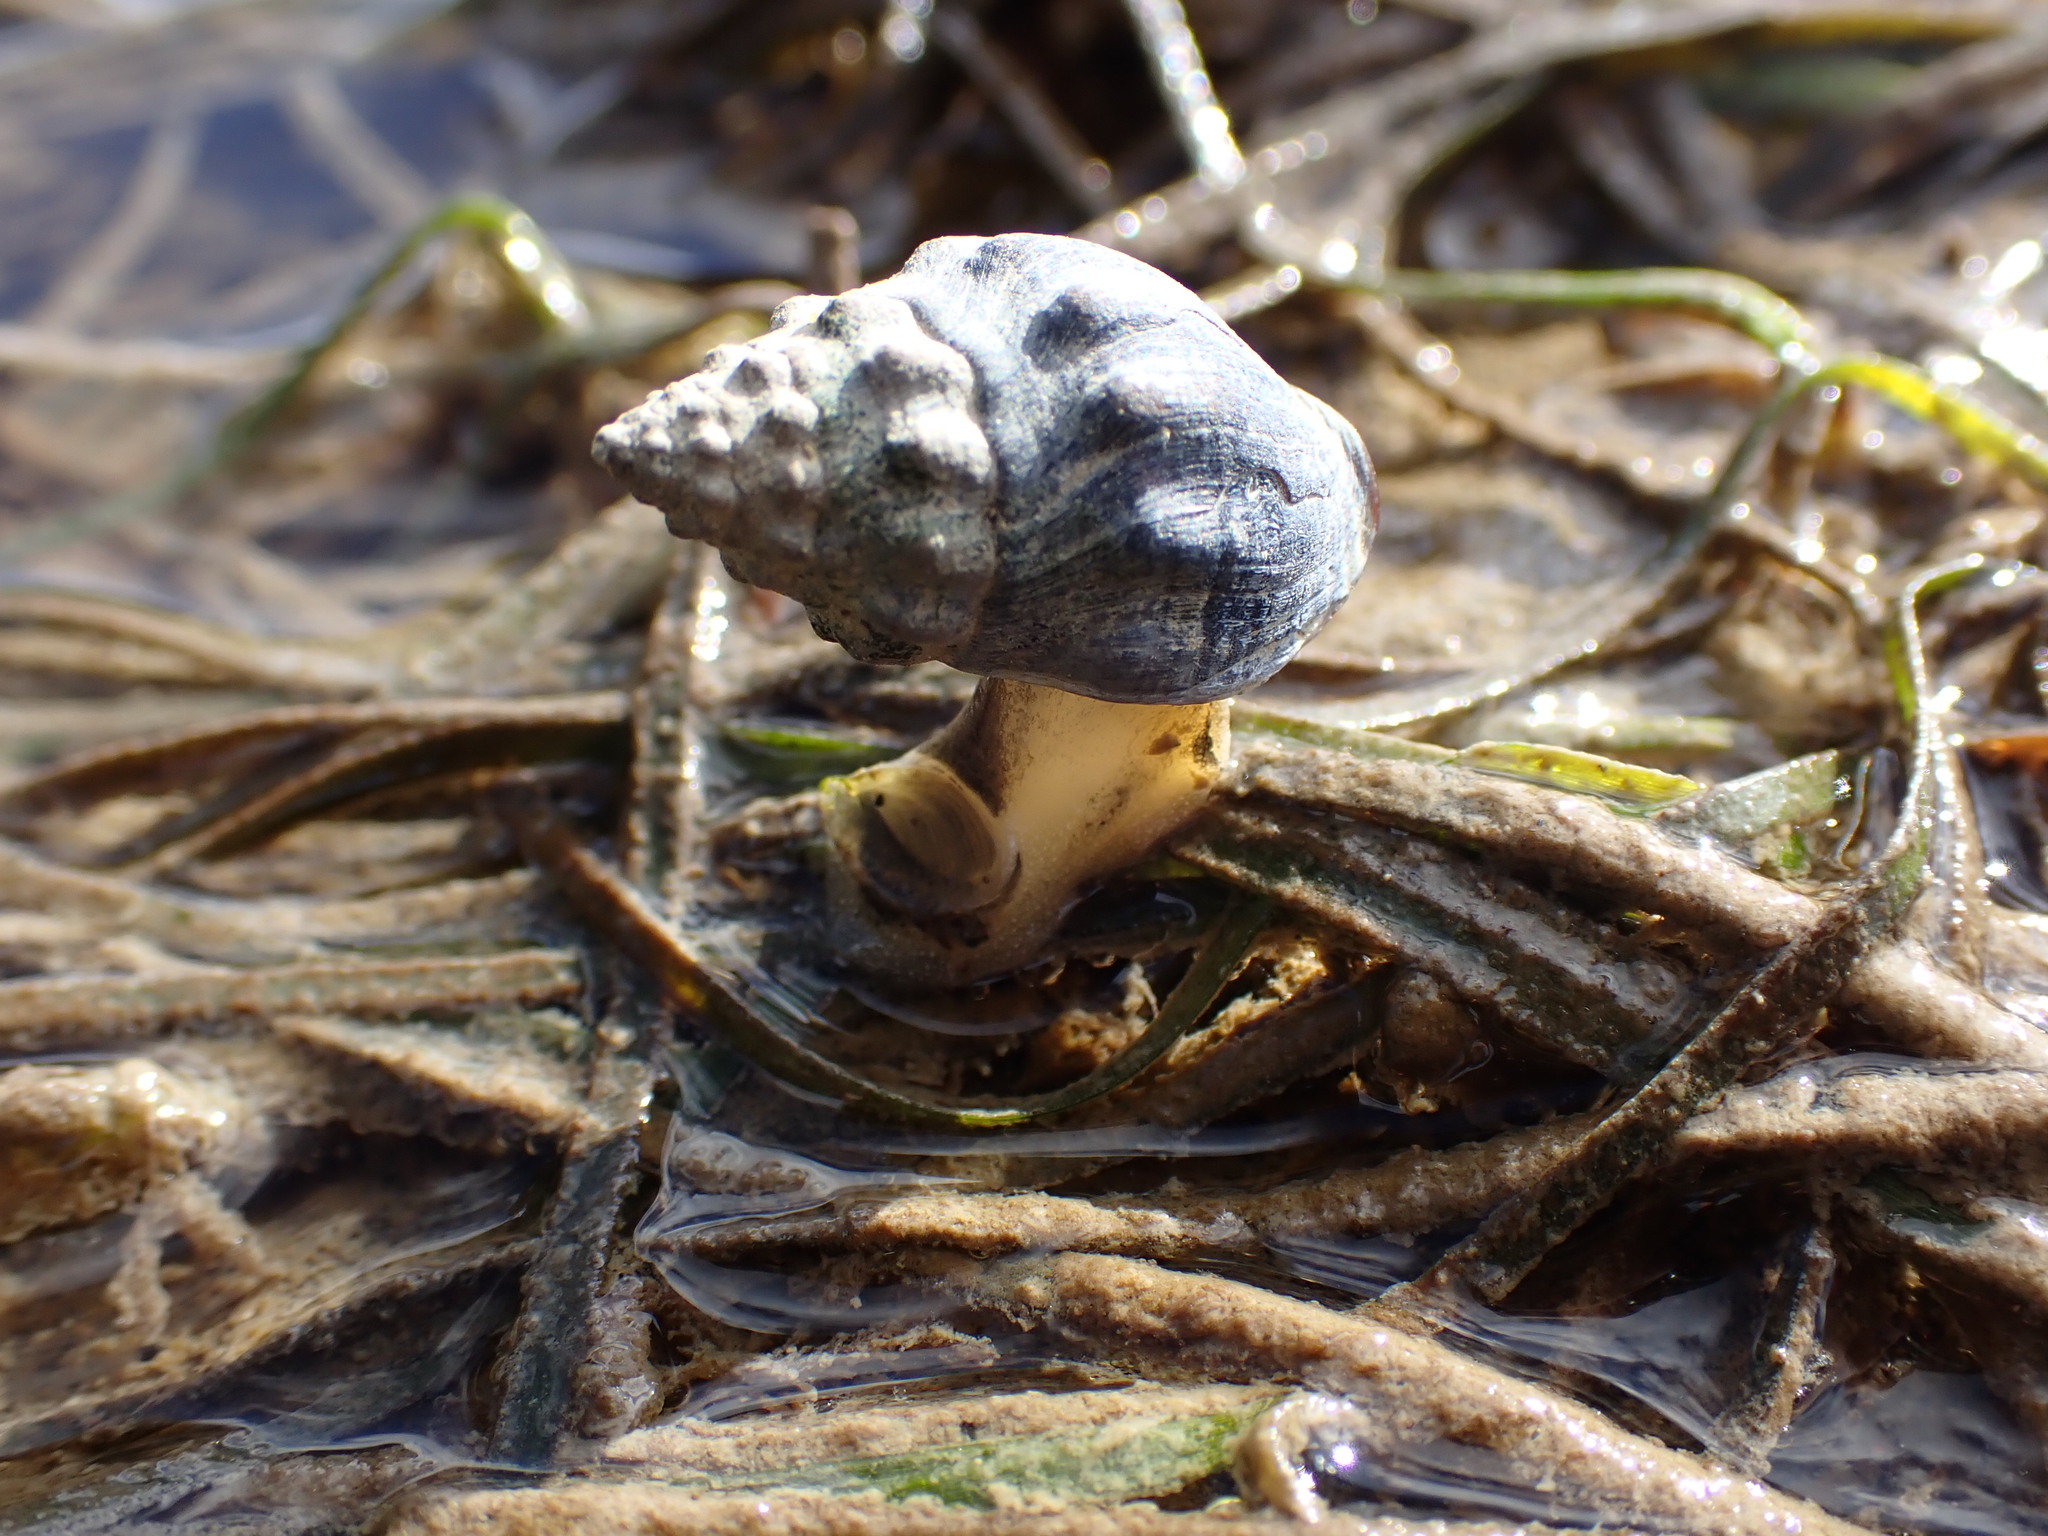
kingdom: Animalia
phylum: Mollusca
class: Gastropoda
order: Neogastropoda
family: Cominellidae
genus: Cominella
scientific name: Cominella glandiformis
